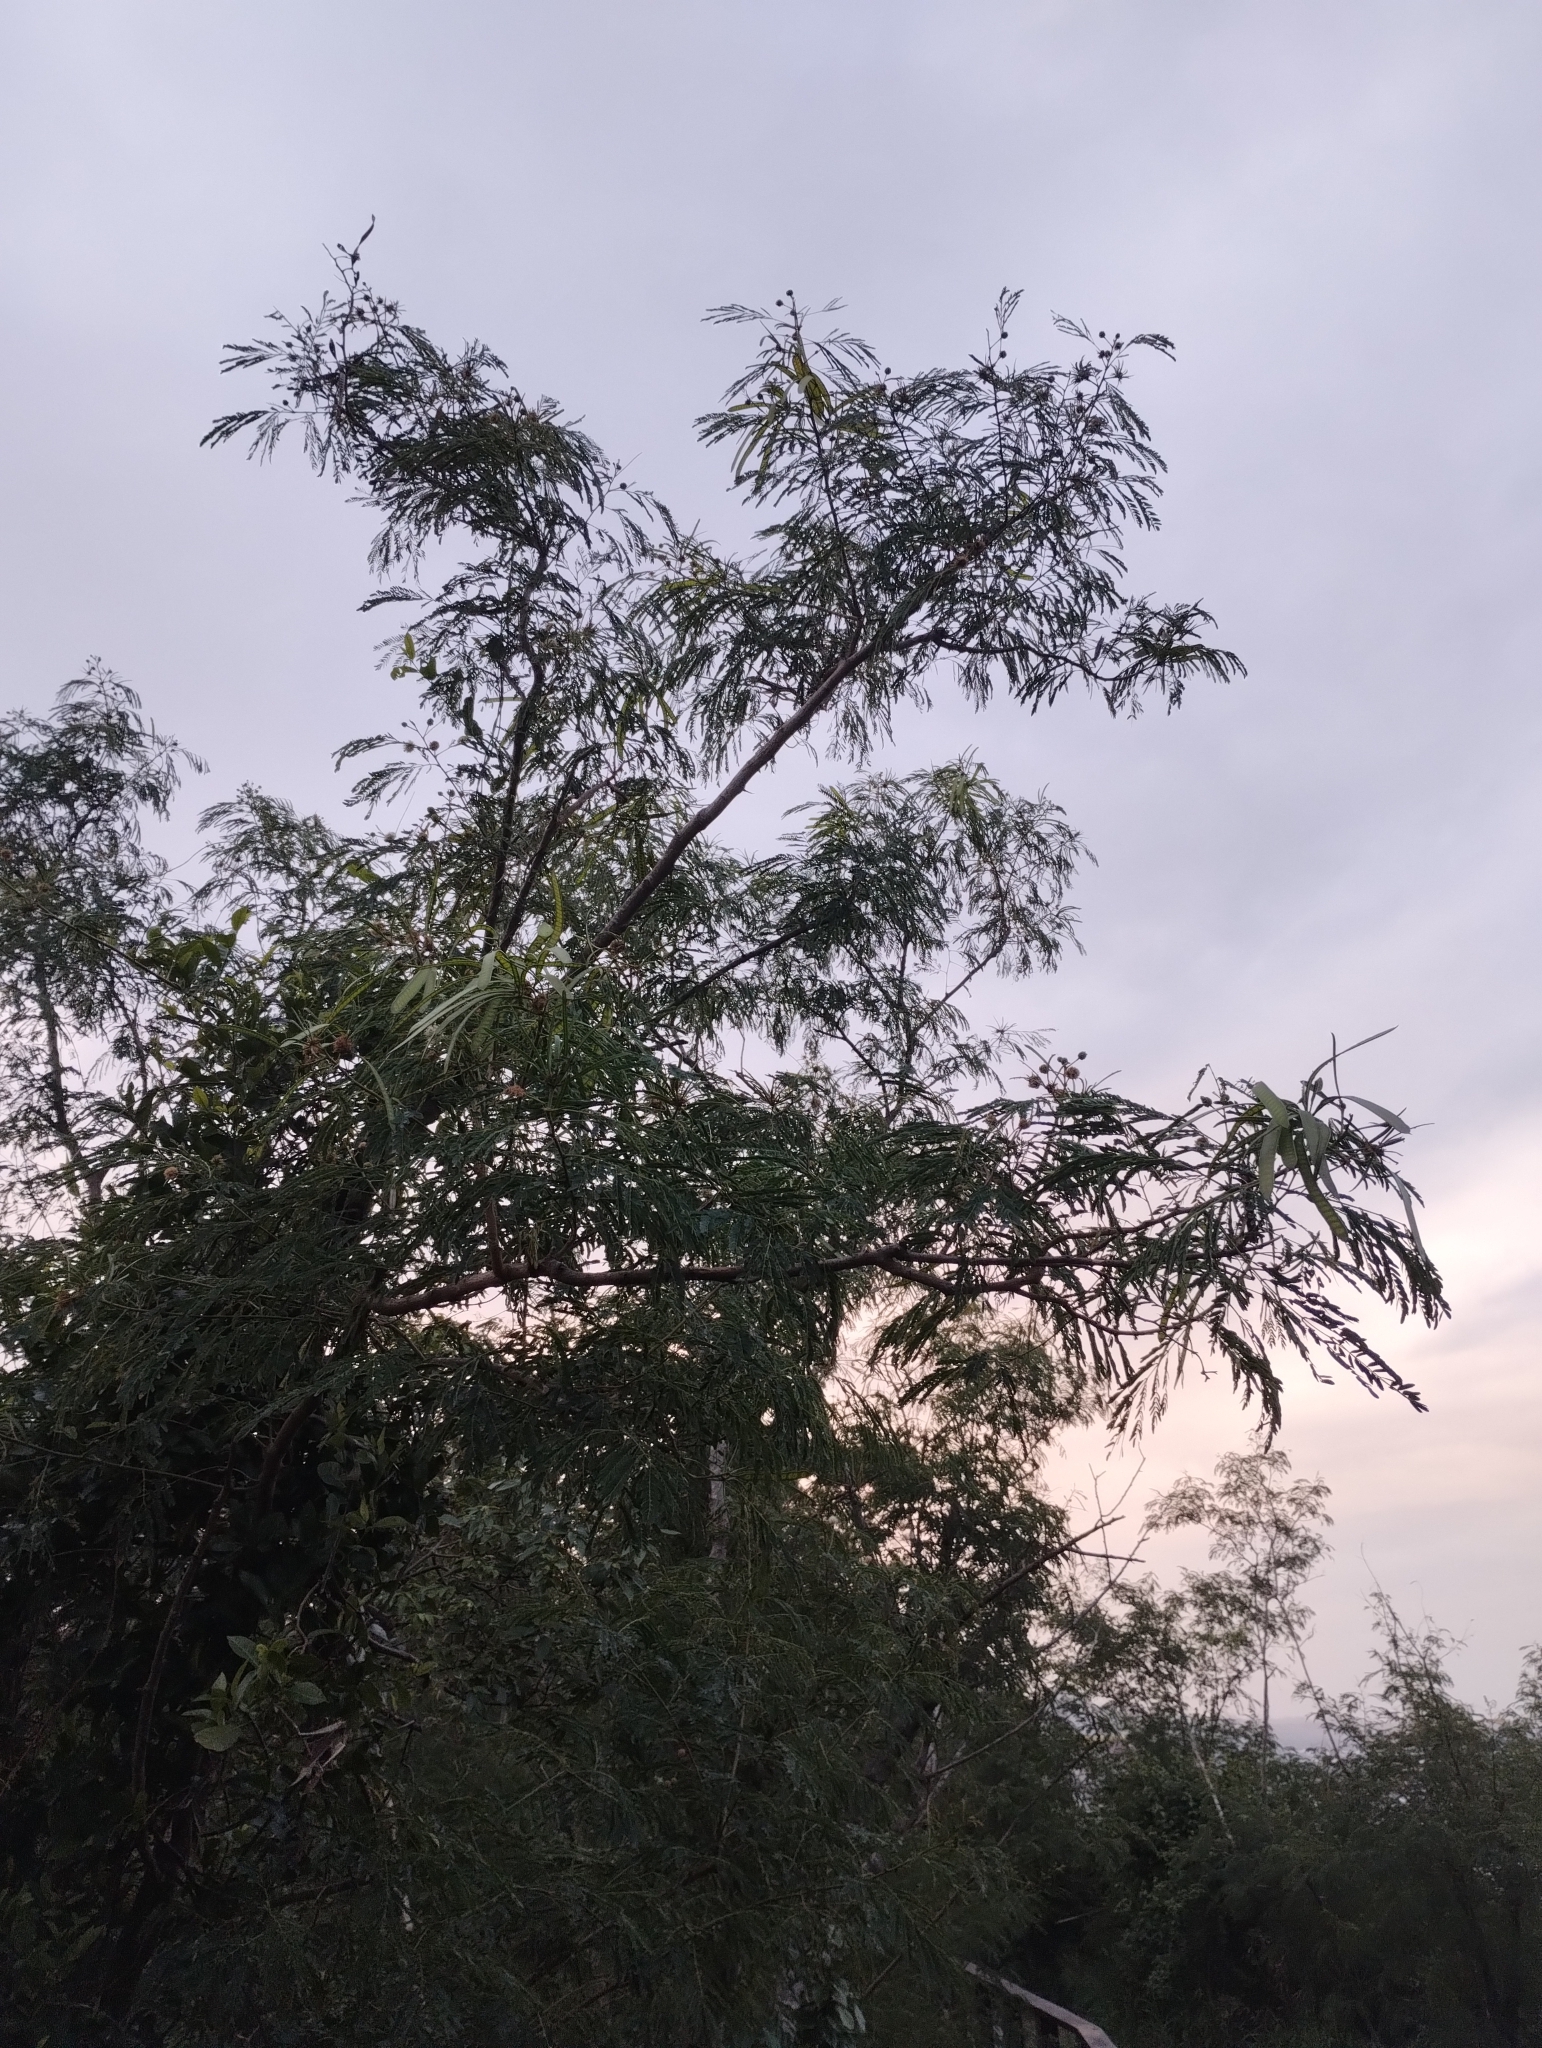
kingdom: Plantae
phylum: Tracheophyta
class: Magnoliopsida
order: Fabales
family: Fabaceae
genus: Leucaena
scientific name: Leucaena leucocephala
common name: White leadtree
